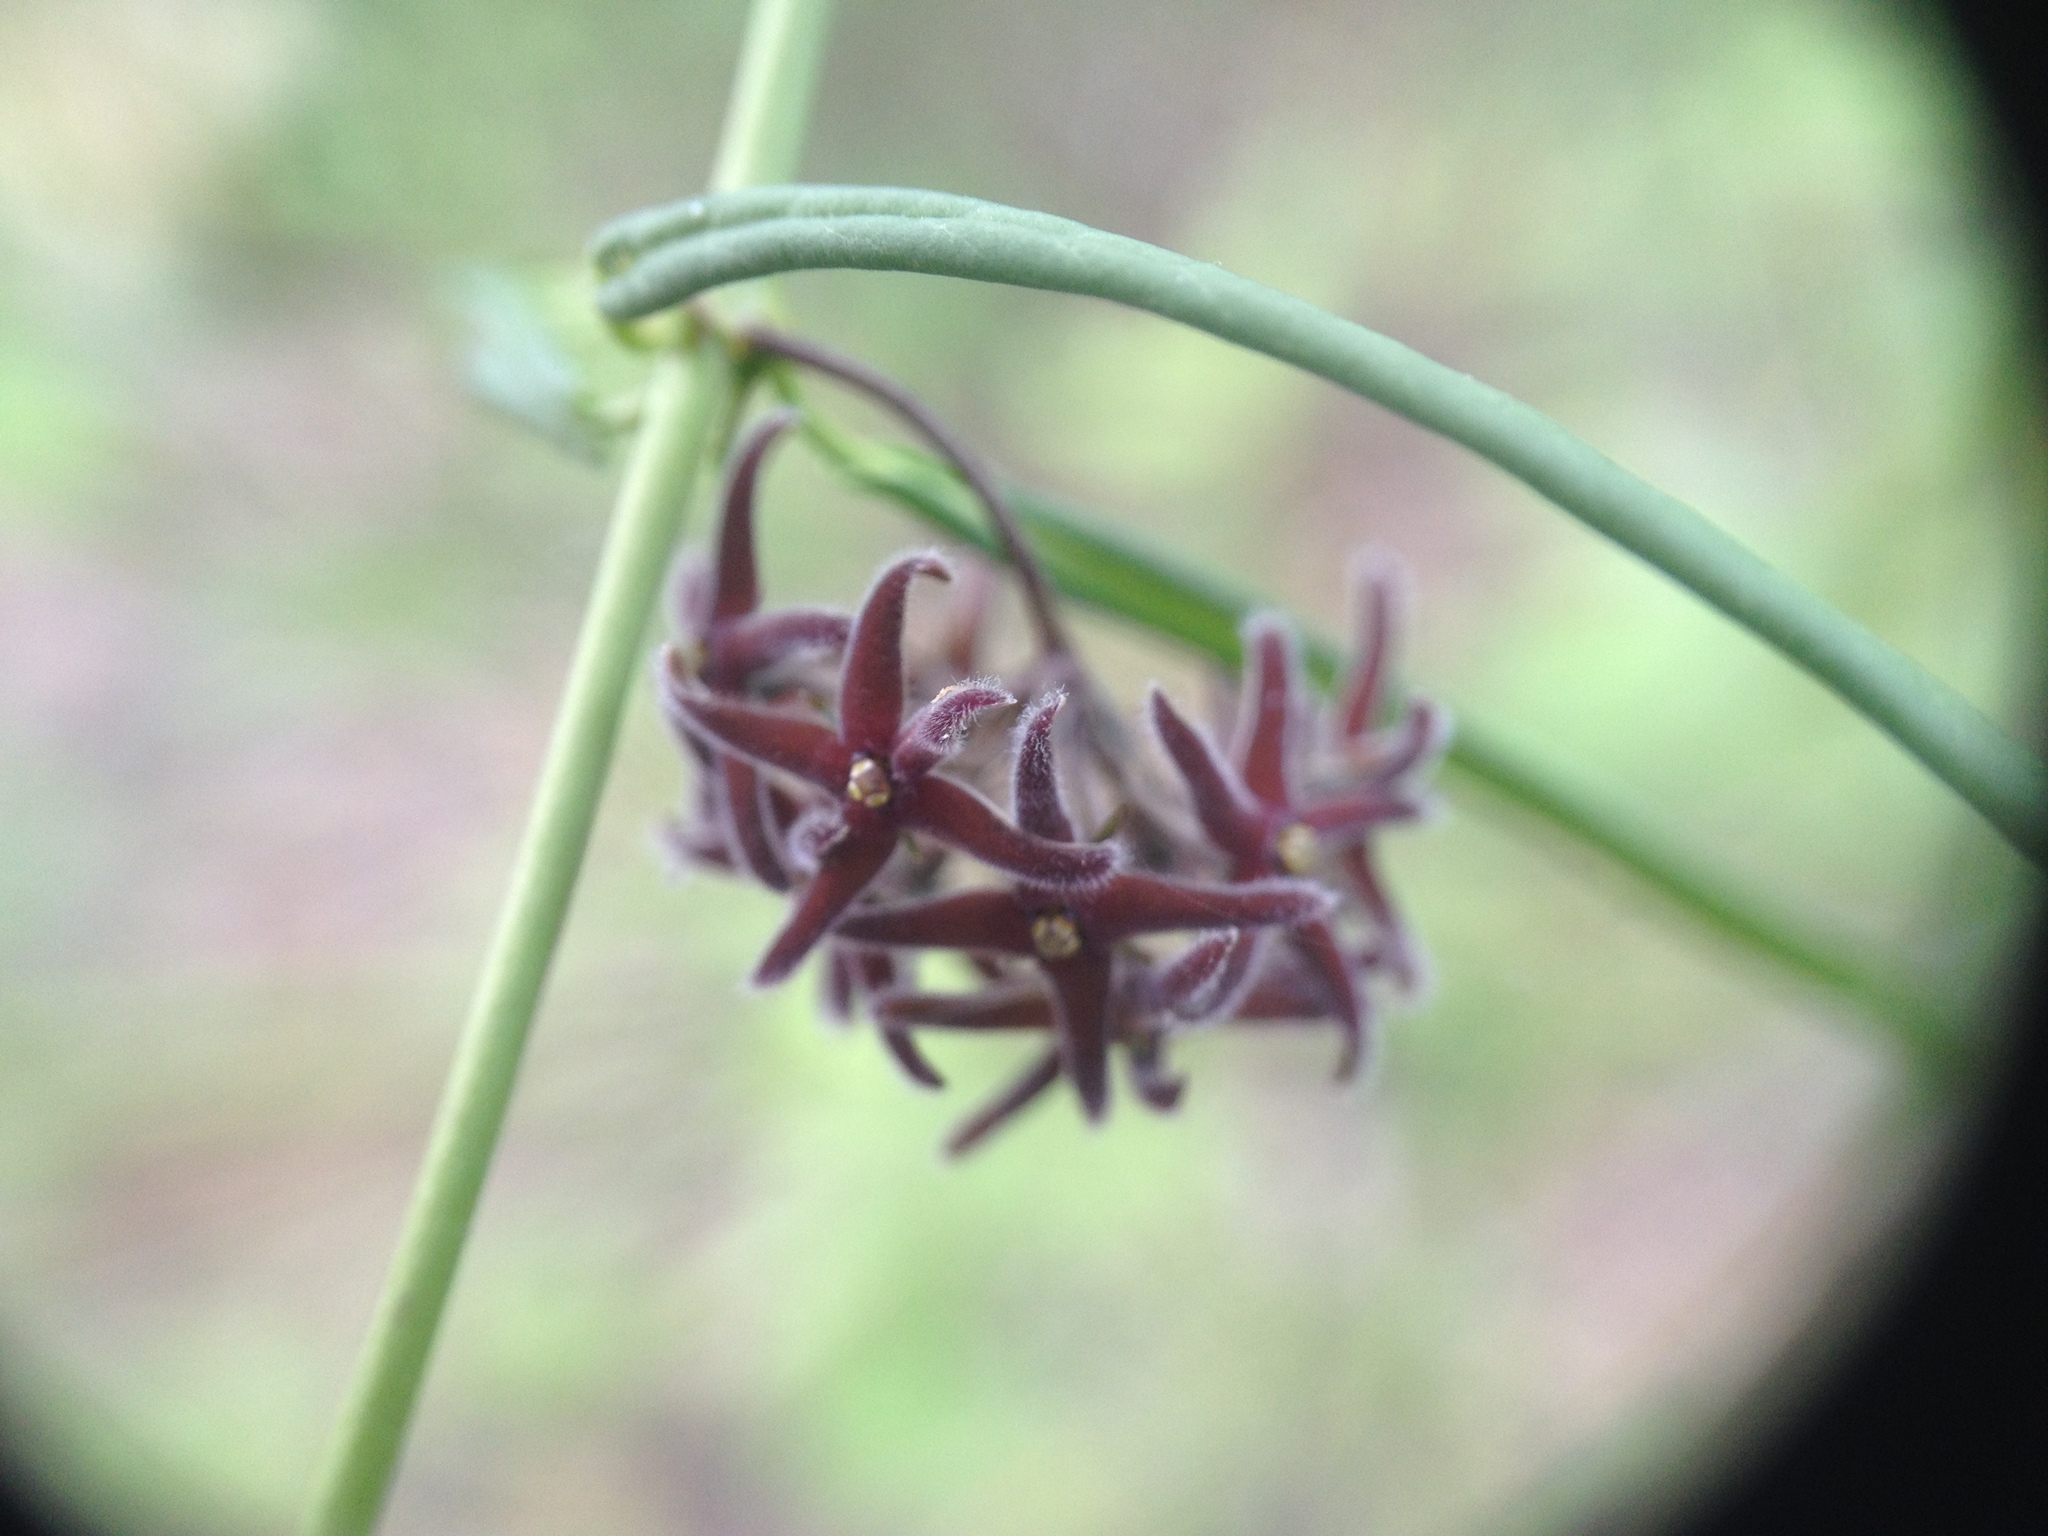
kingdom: Plantae
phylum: Tracheophyta
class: Magnoliopsida
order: Gentianales
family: Apocynaceae
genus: Petalostelma
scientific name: Petalostelma robertii
